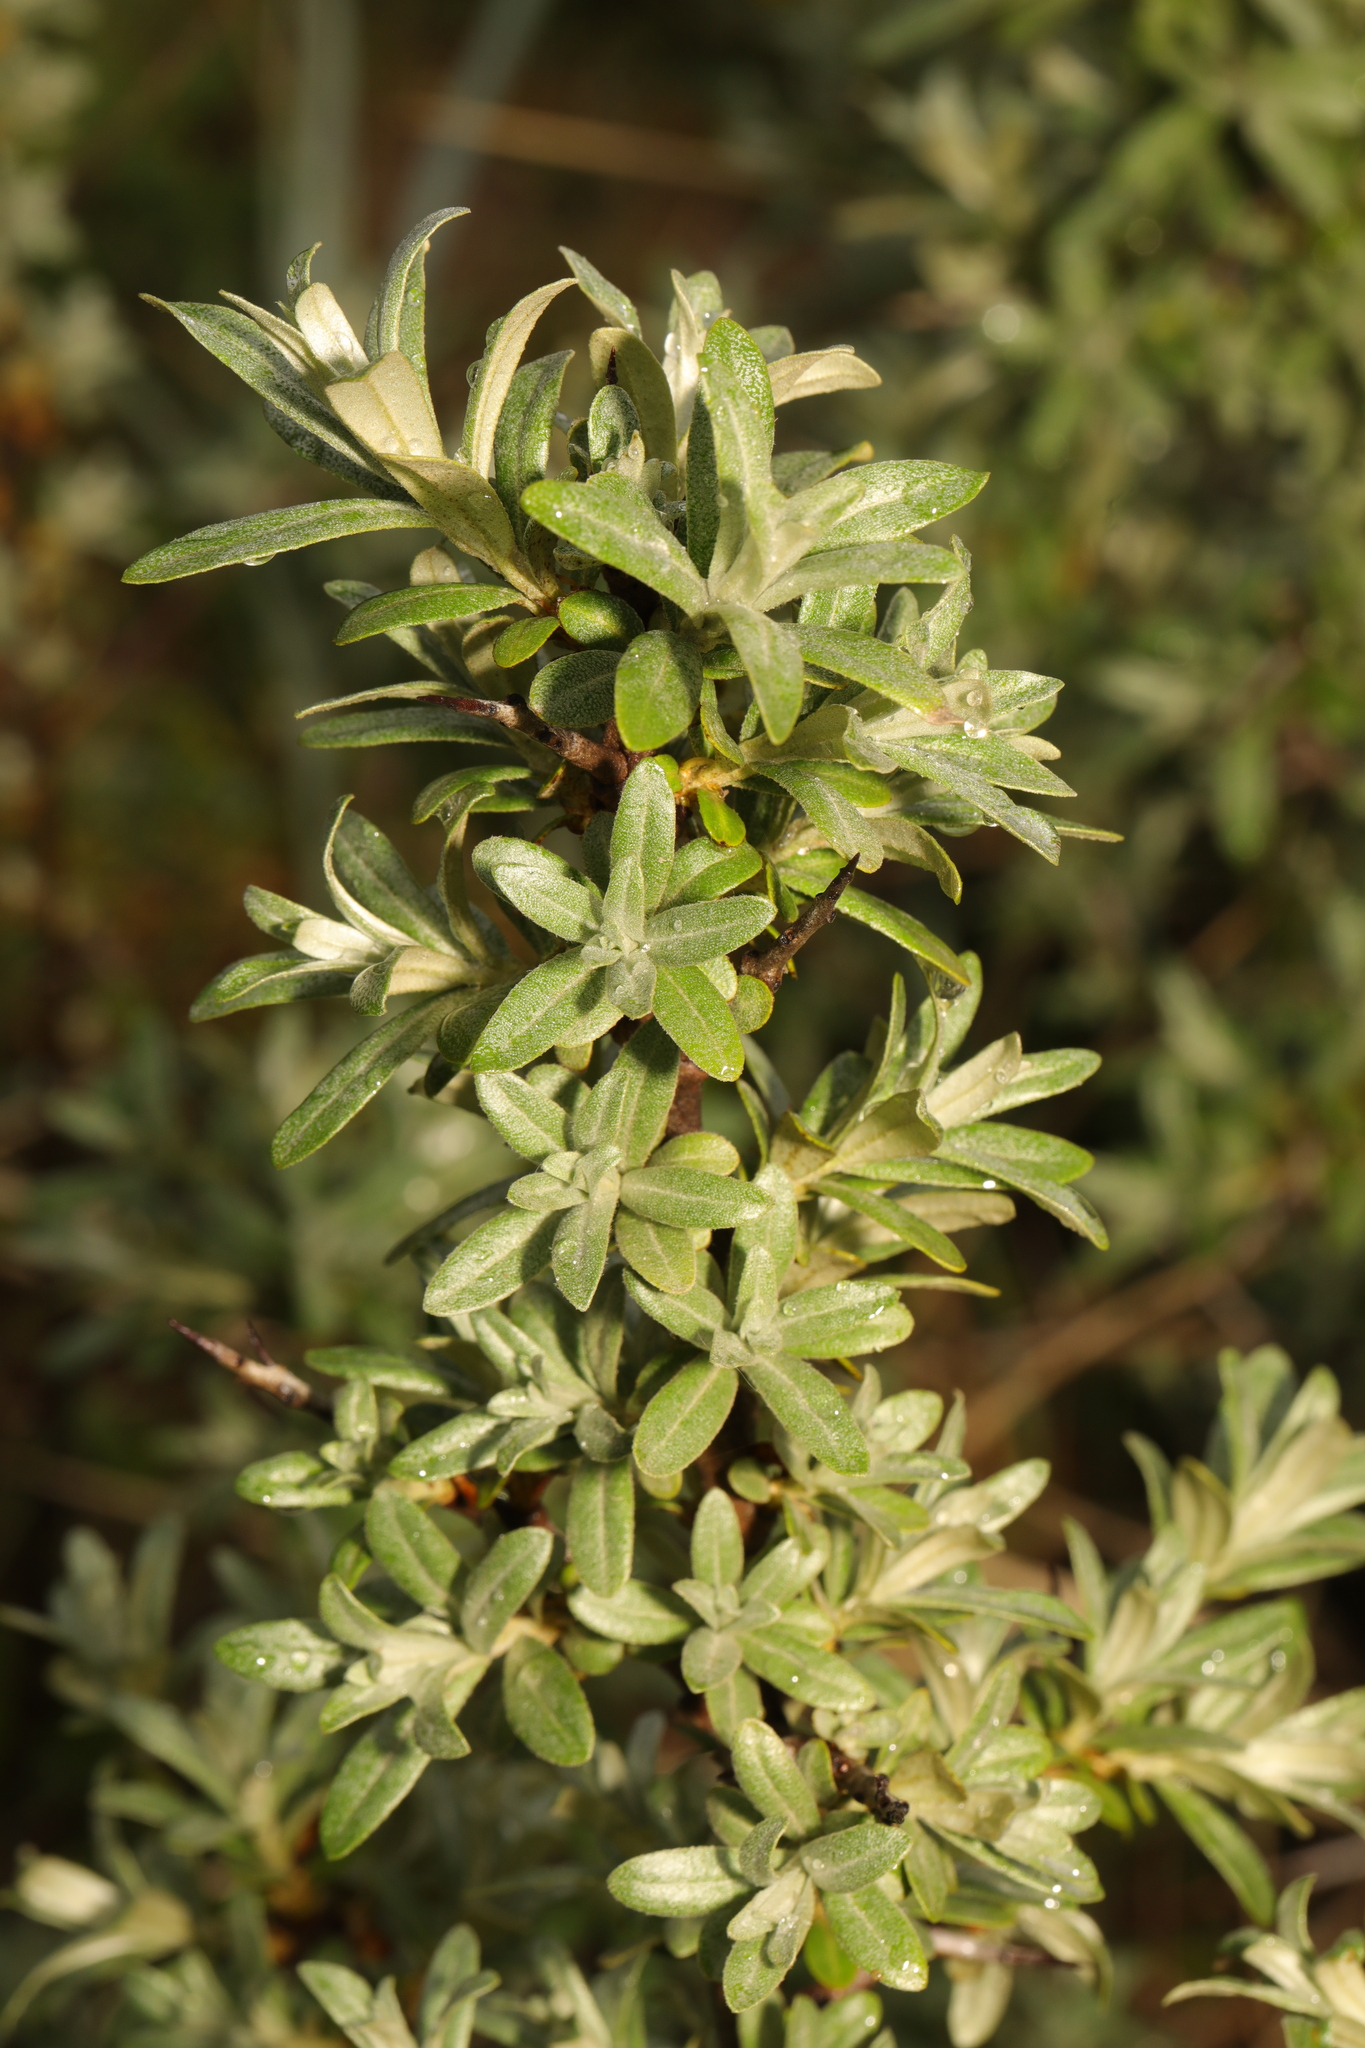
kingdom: Plantae
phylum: Tracheophyta
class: Magnoliopsida
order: Rosales
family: Elaeagnaceae
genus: Hippophae
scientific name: Hippophae rhamnoides
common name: Sea-buckthorn
